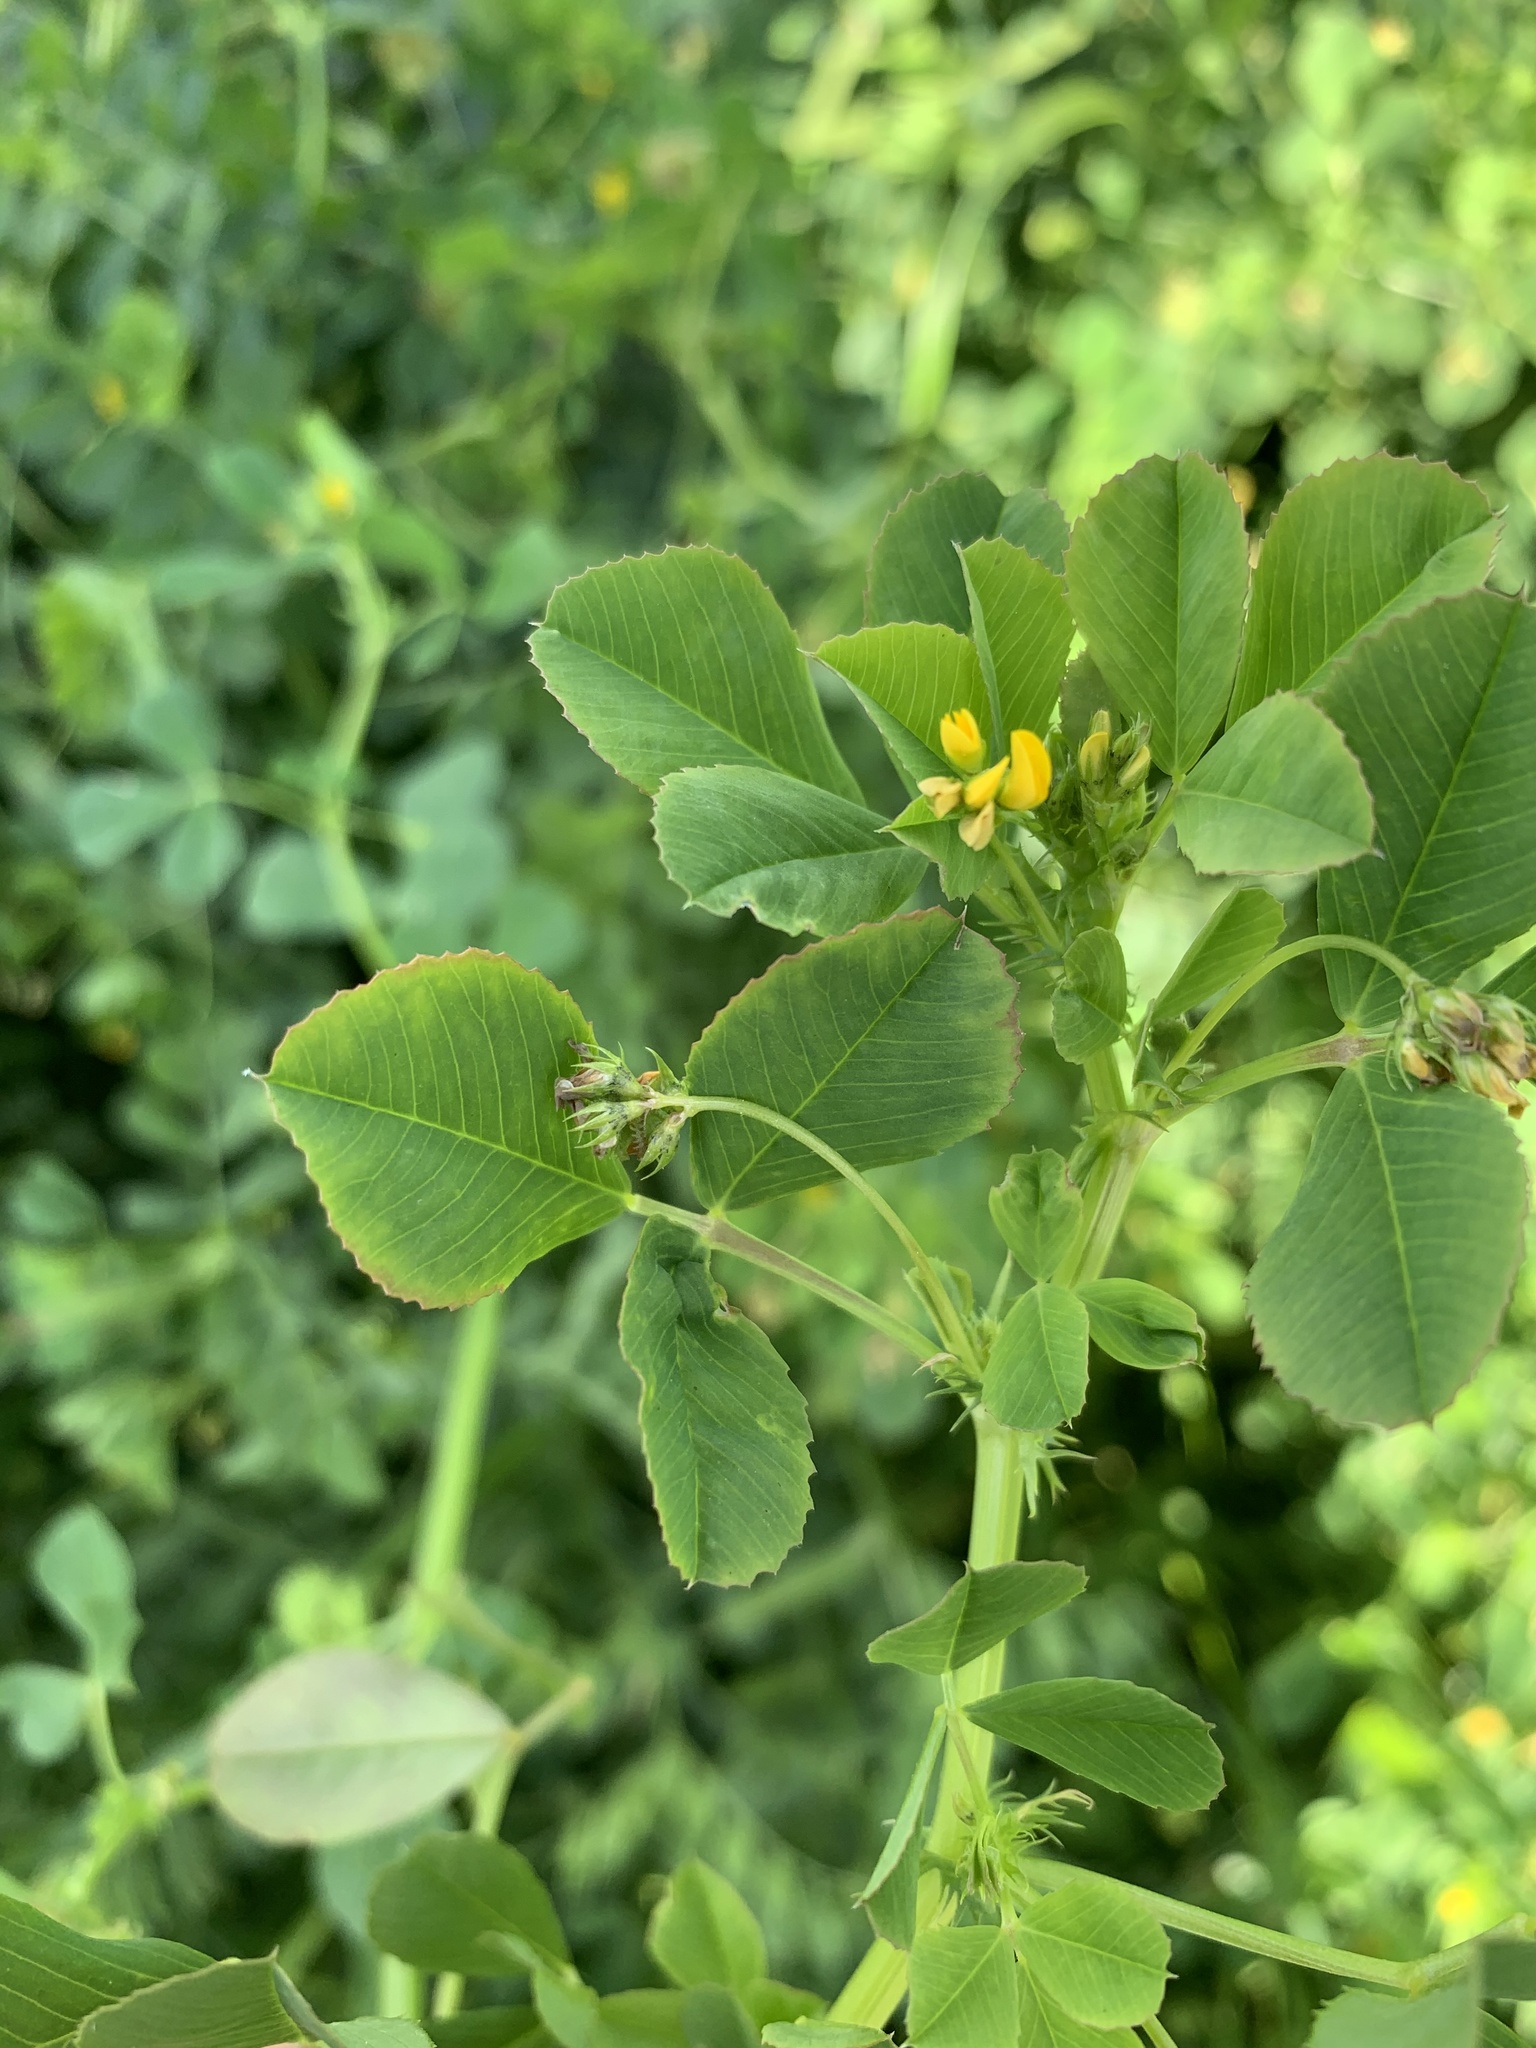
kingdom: Plantae
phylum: Tracheophyta
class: Magnoliopsida
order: Fabales
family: Fabaceae
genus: Medicago
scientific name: Medicago polymorpha
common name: Burclover
